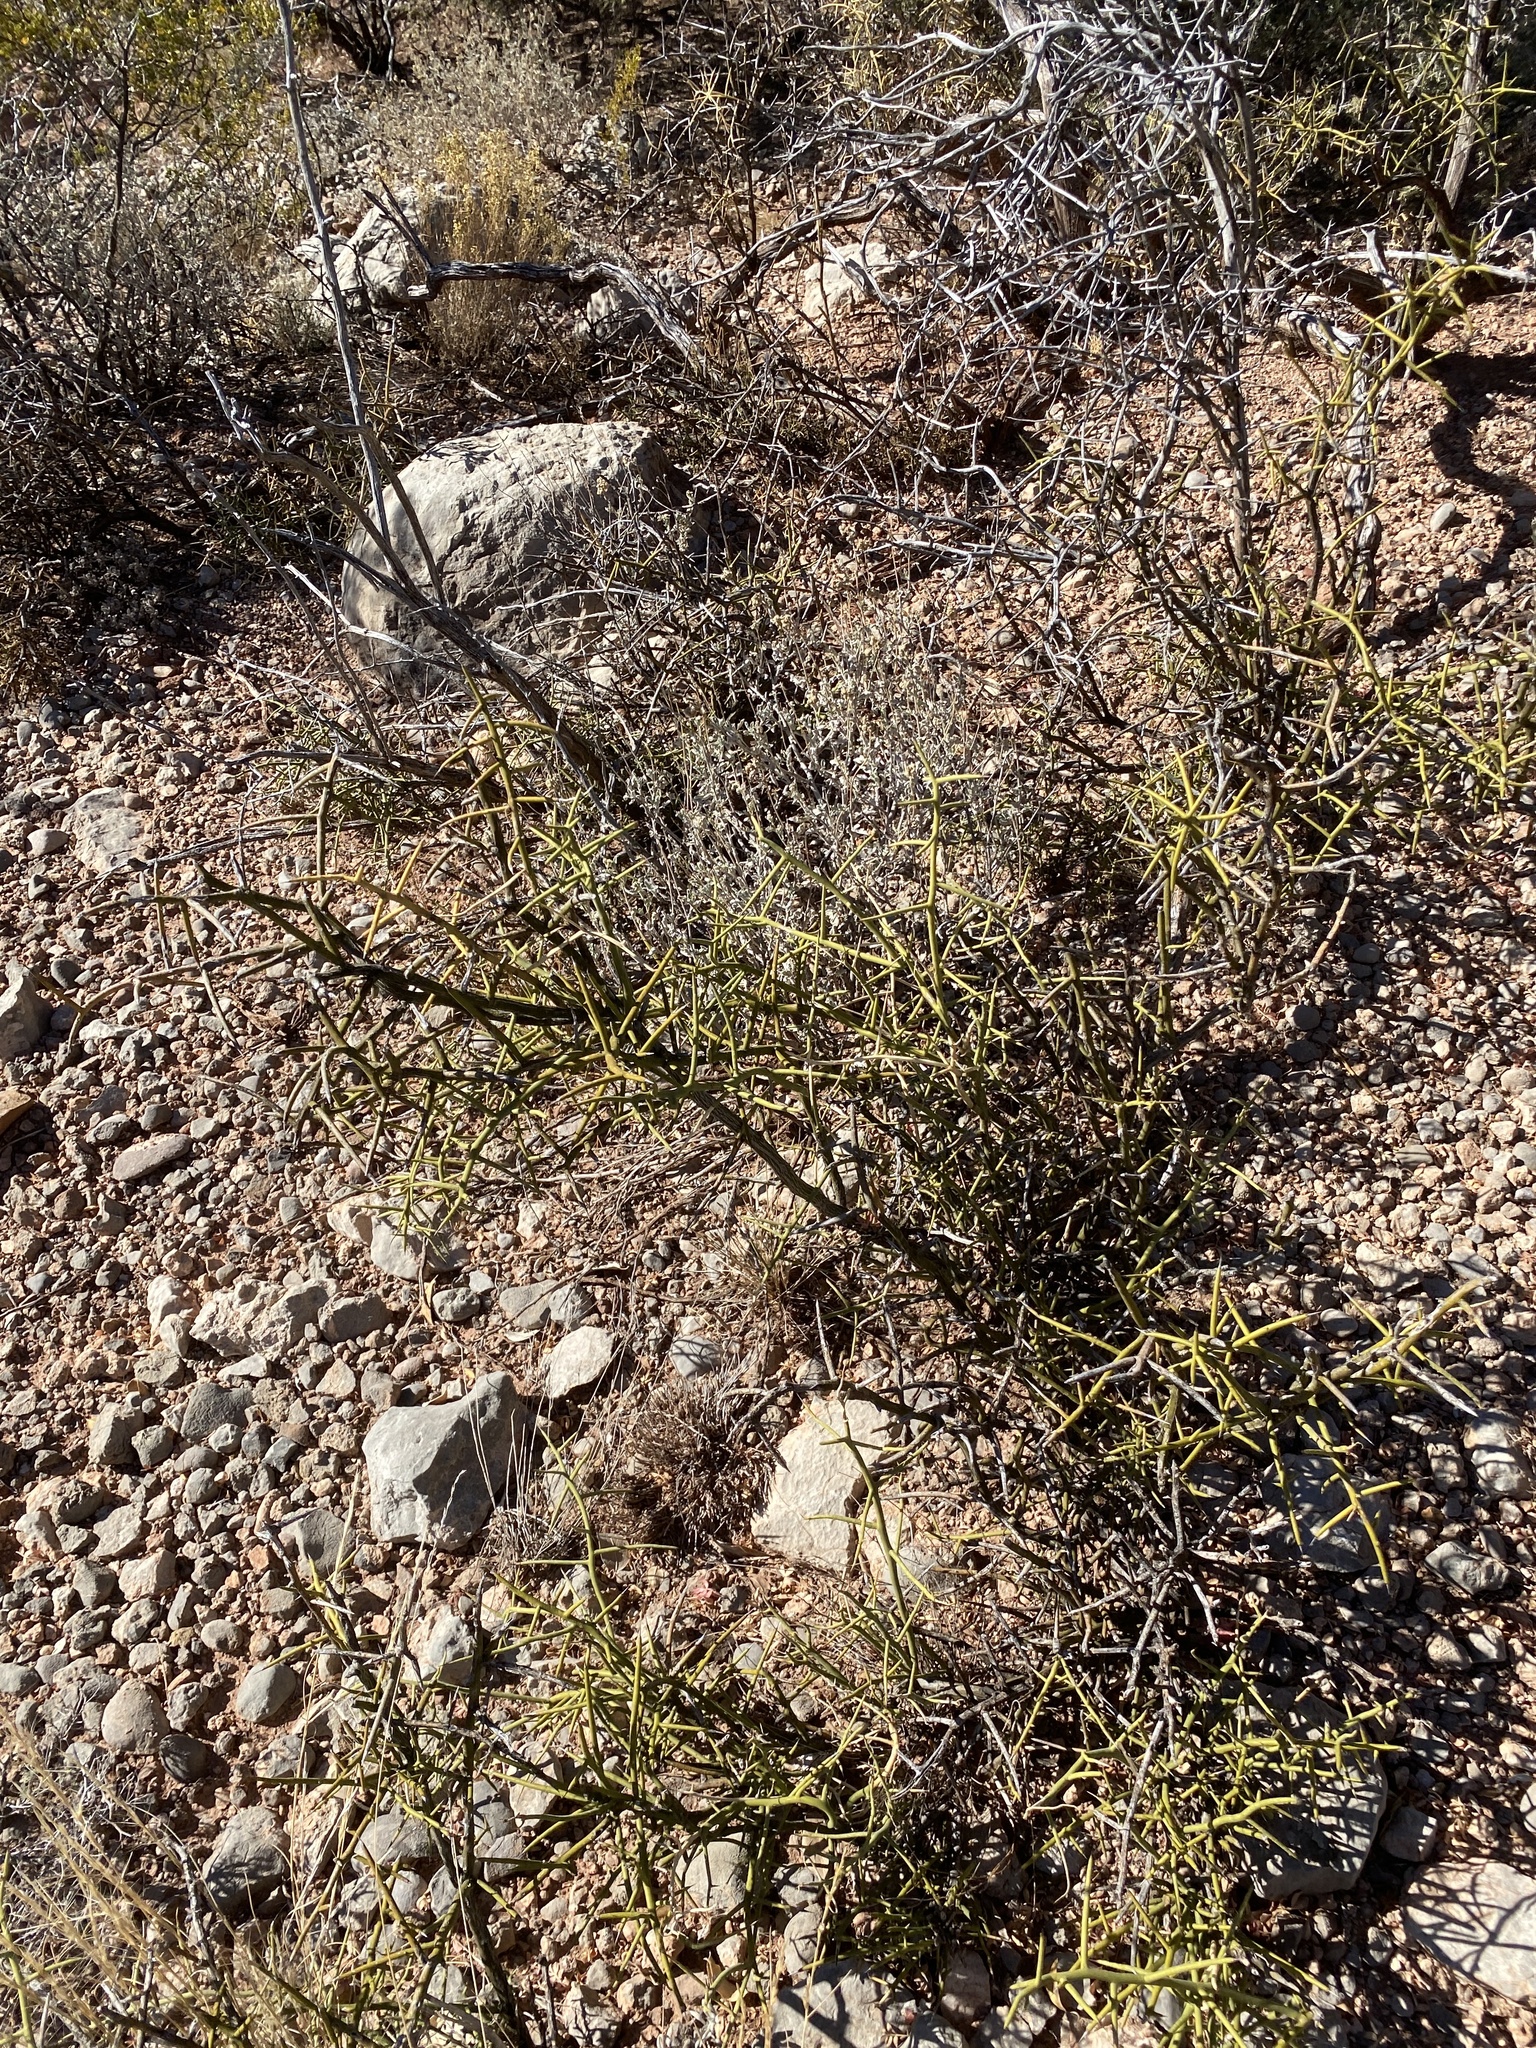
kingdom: Plantae
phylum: Tracheophyta
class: Magnoliopsida
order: Brassicales
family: Koeberliniaceae
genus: Koeberlinia
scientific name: Koeberlinia spinosa
